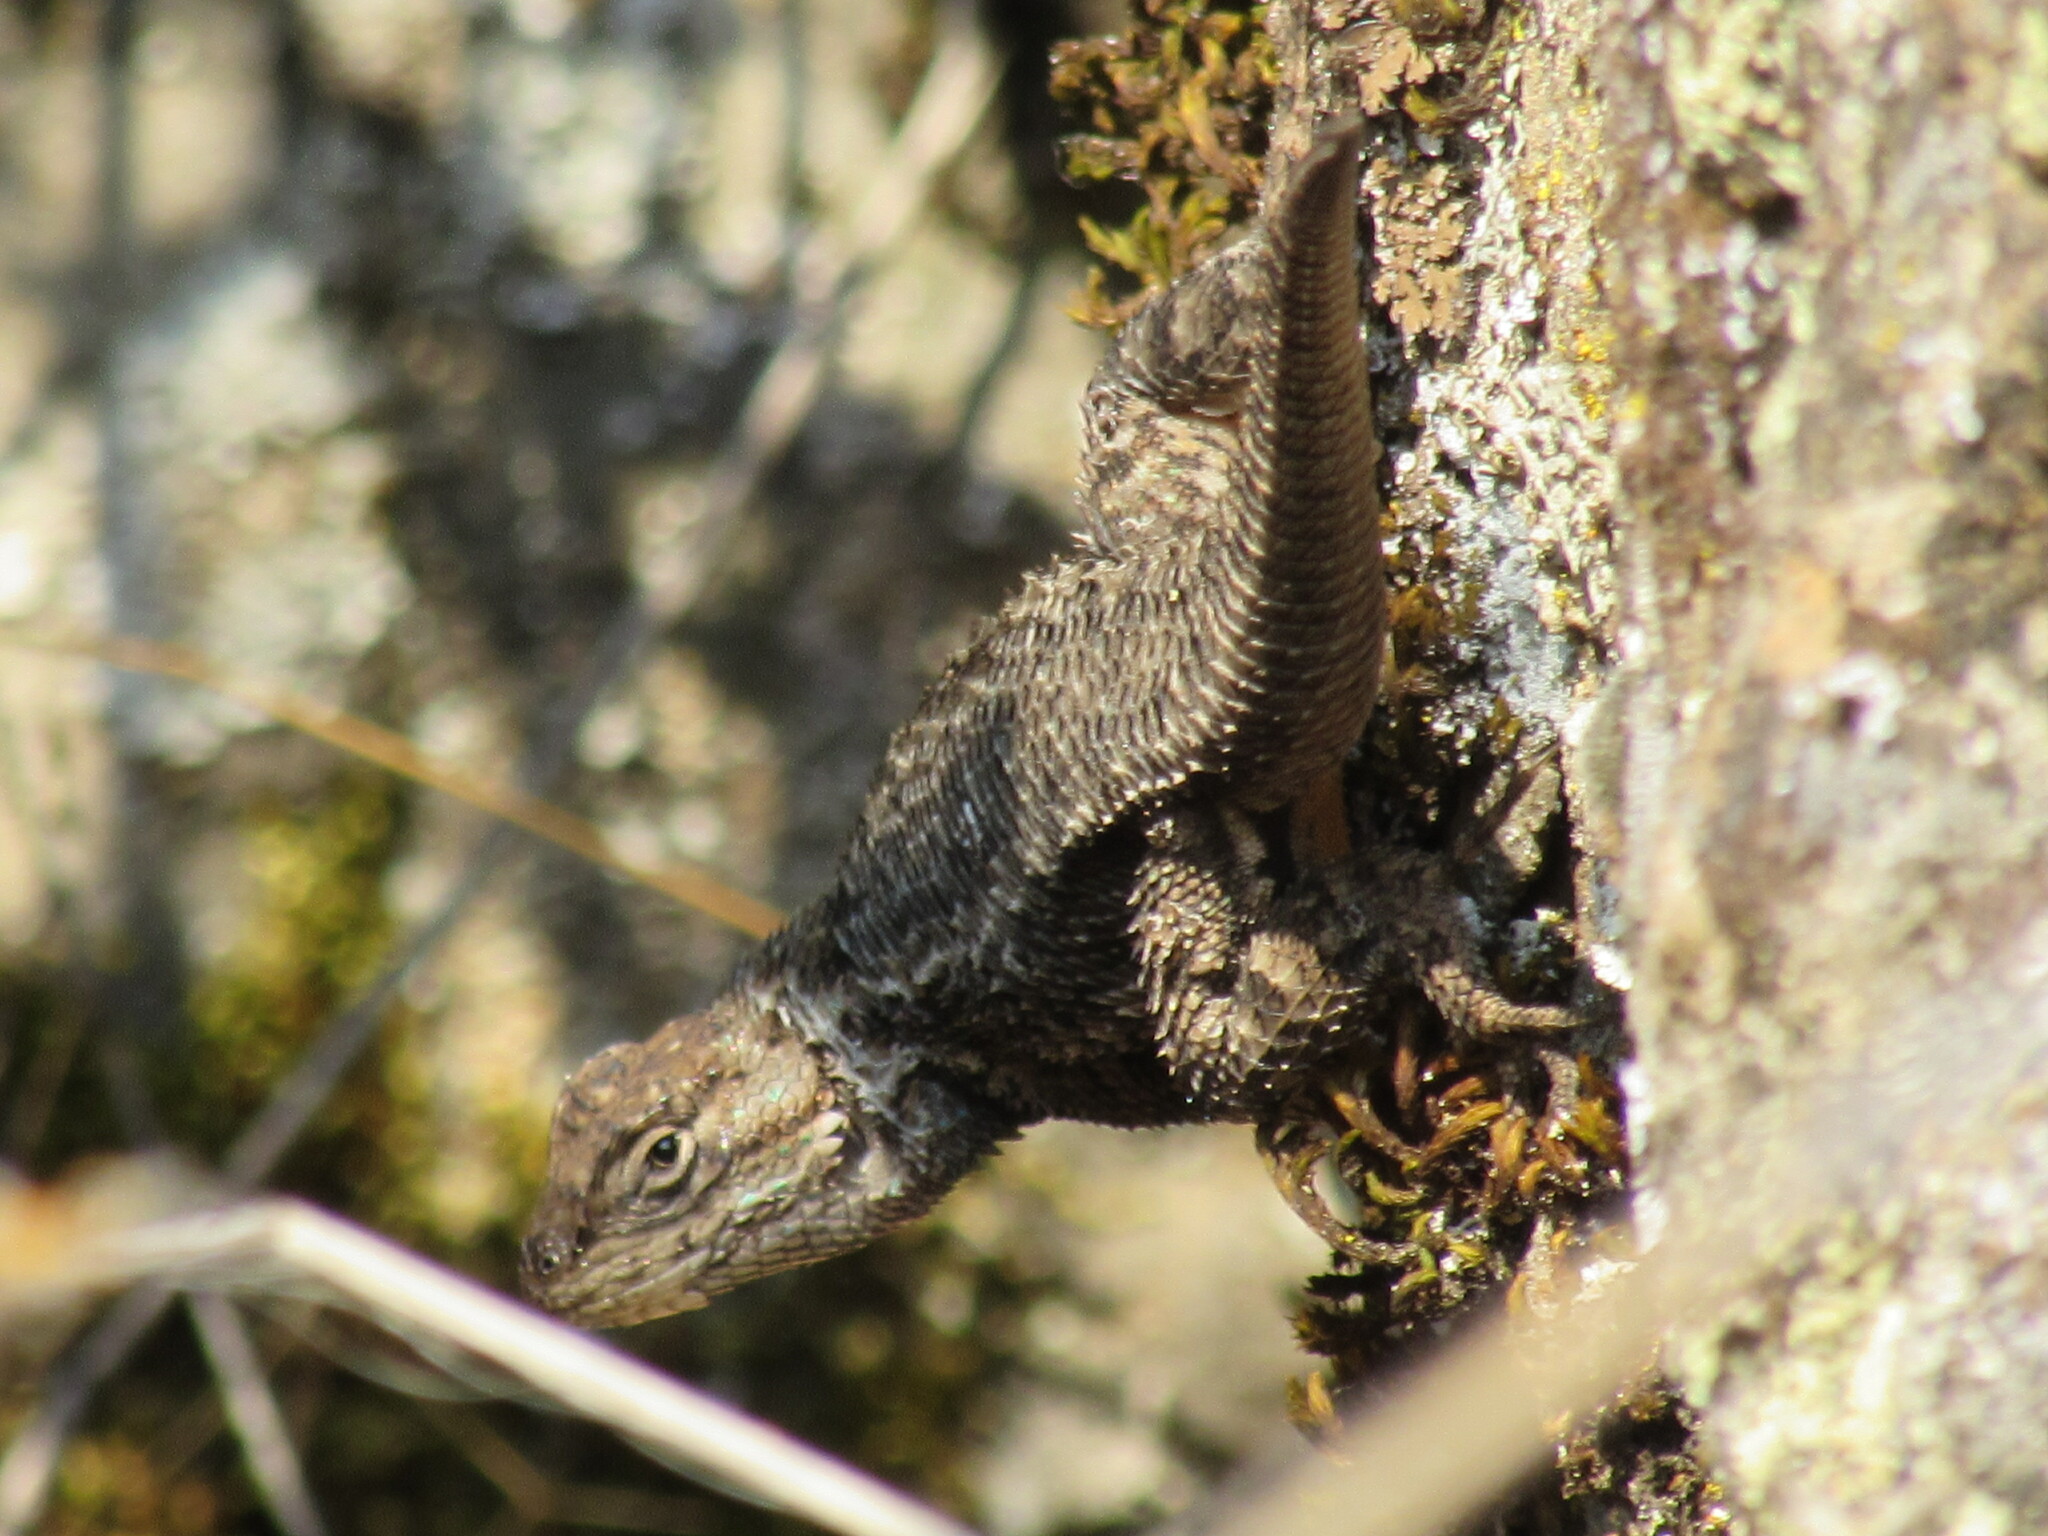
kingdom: Animalia
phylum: Chordata
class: Squamata
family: Phrynosomatidae
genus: Sceloporus
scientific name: Sceloporus occidentalis
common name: Western fence lizard
